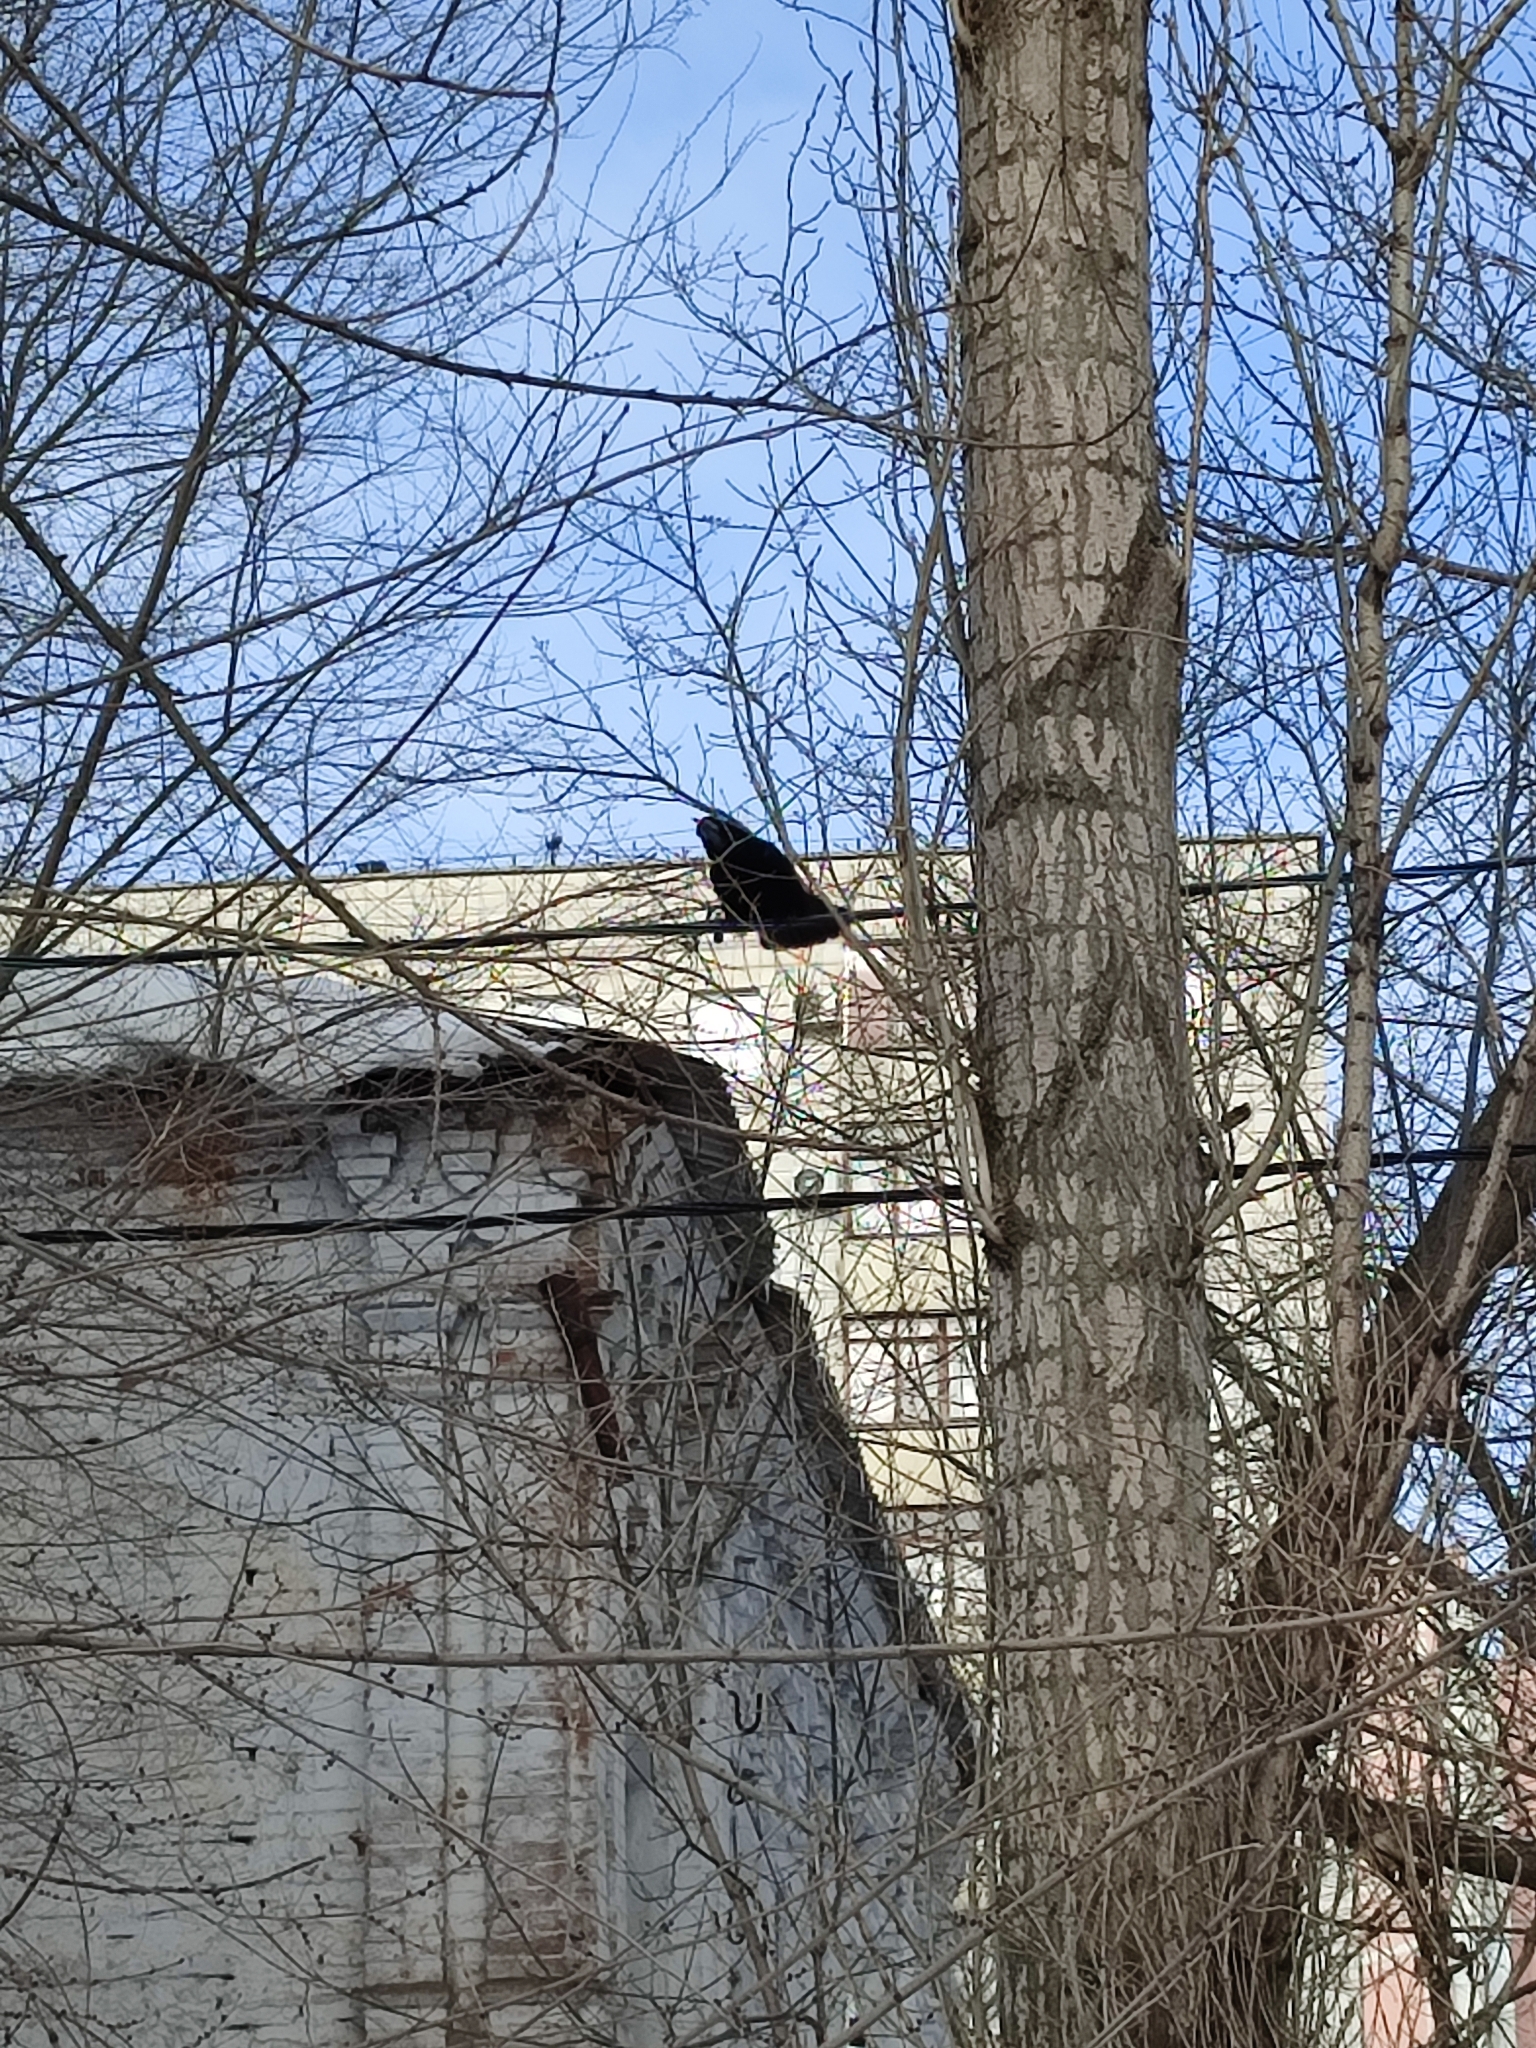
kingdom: Animalia
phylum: Chordata
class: Aves
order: Passeriformes
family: Corvidae
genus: Corvus
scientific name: Corvus frugilegus
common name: Rook
